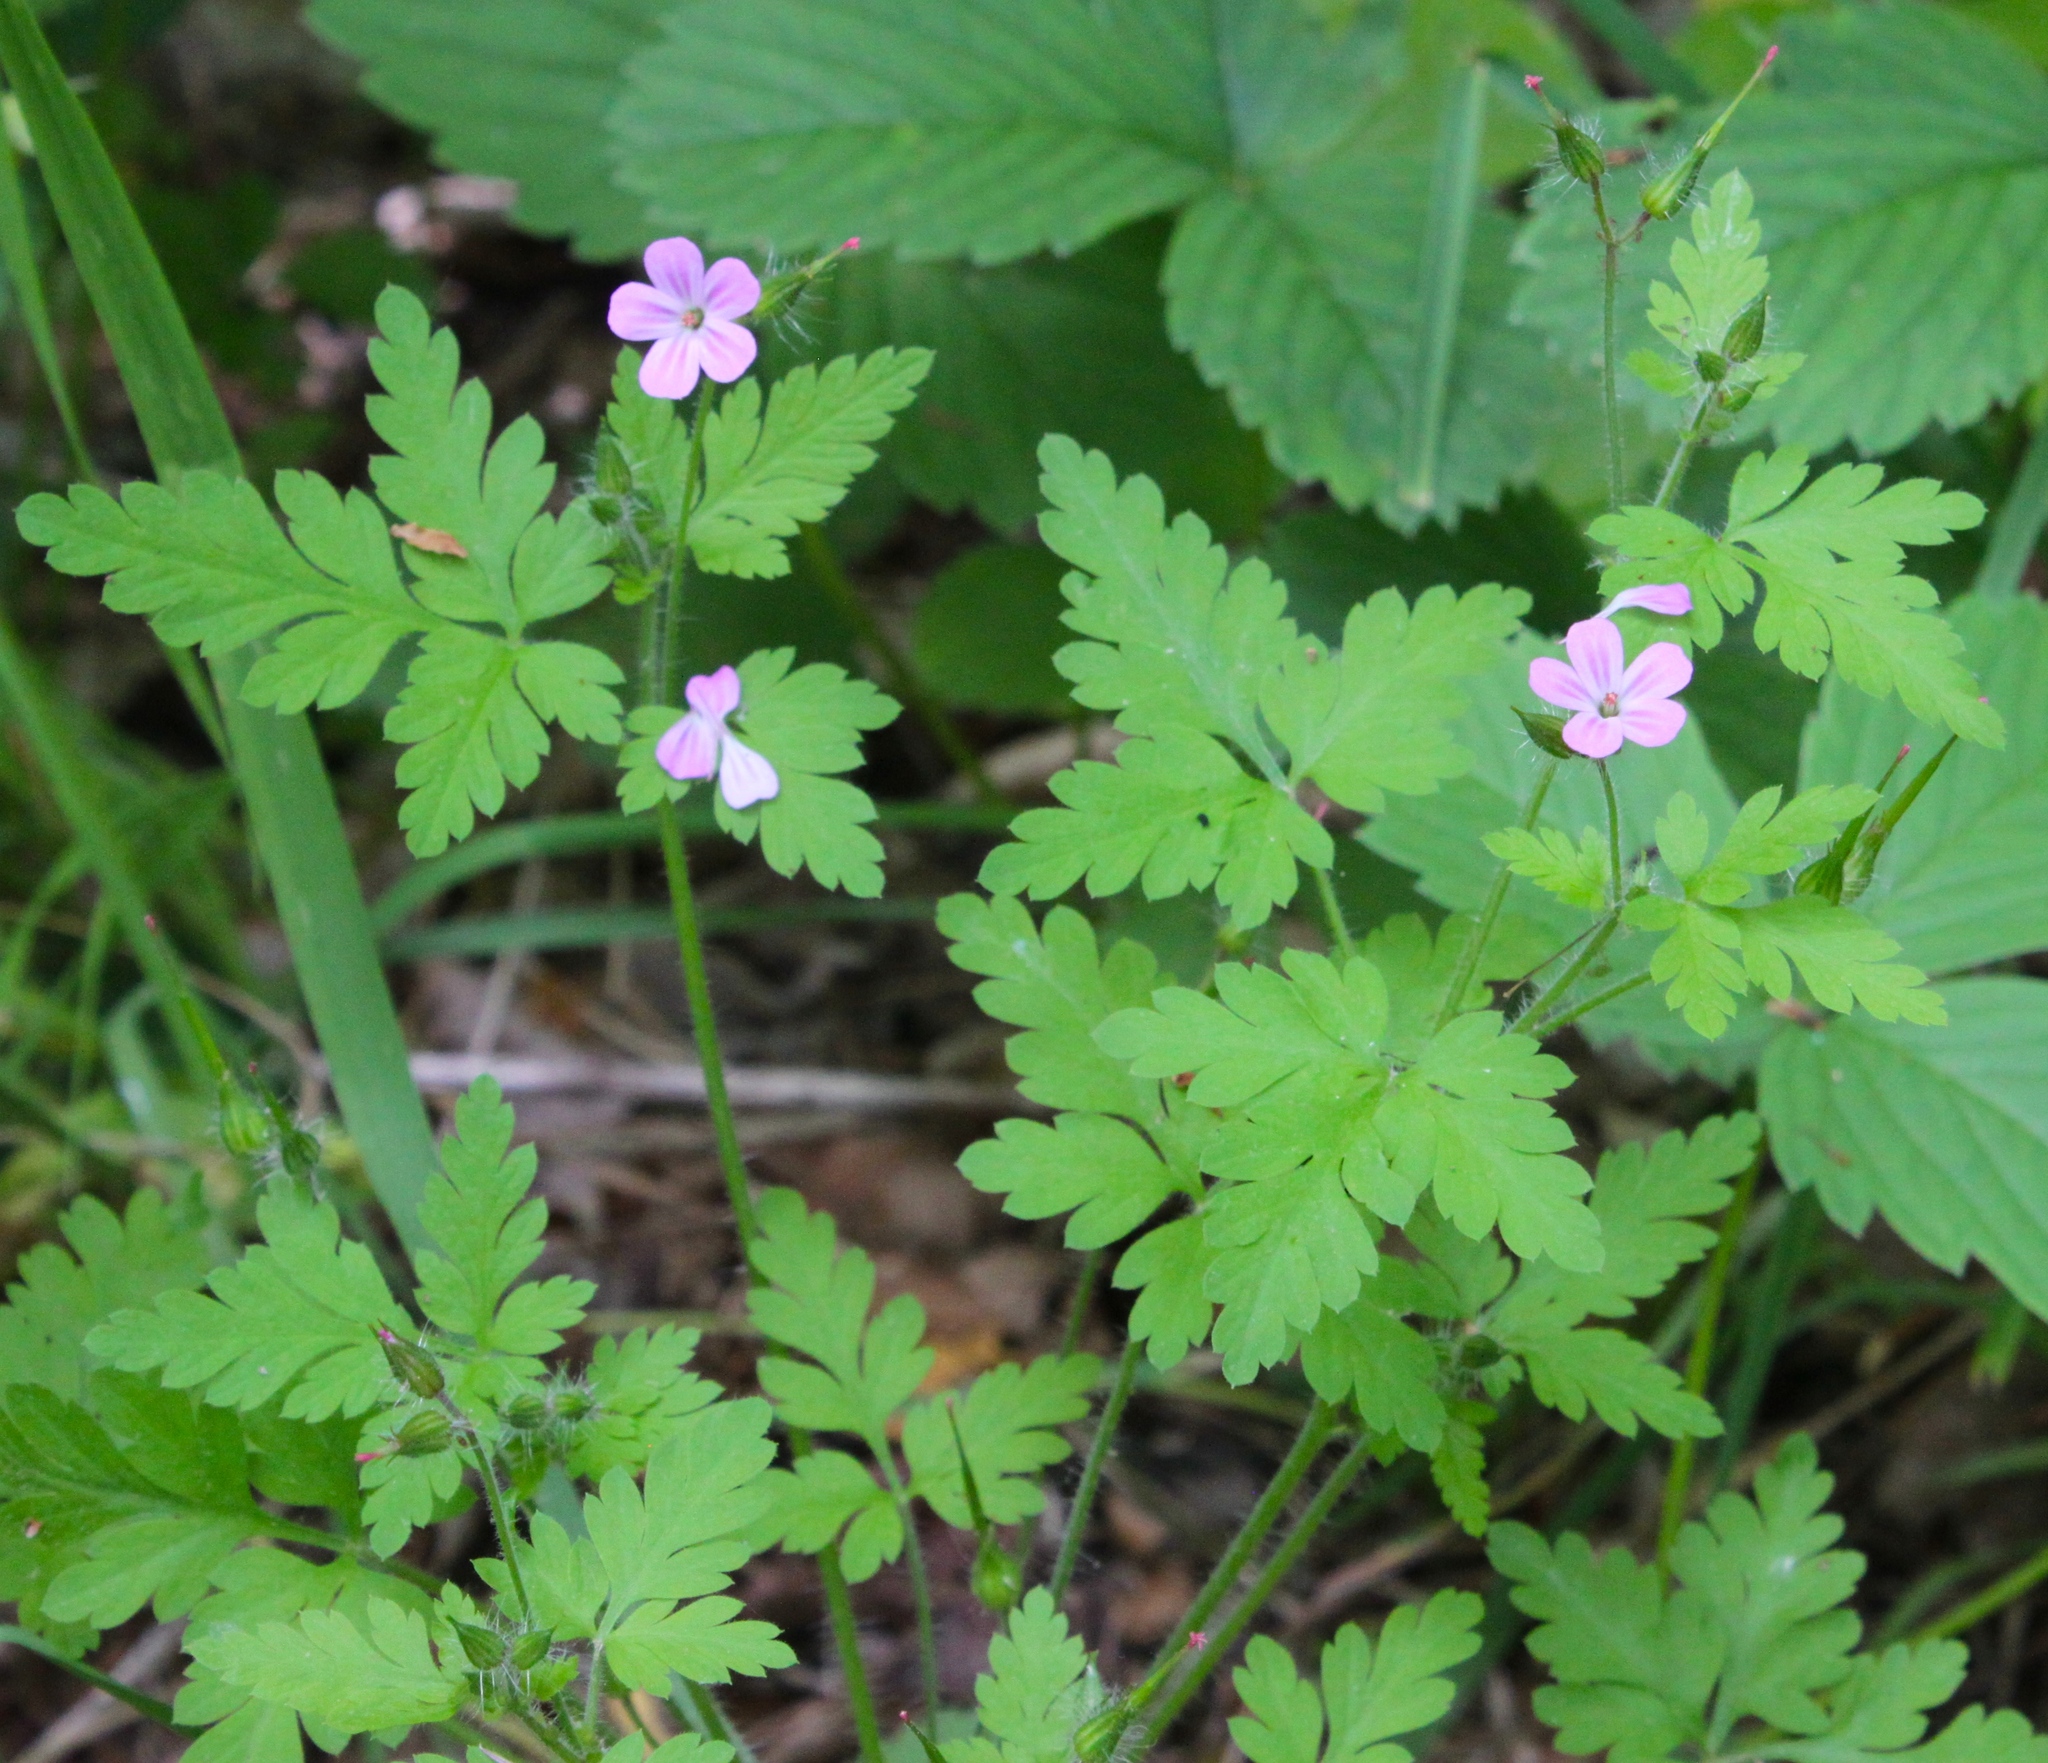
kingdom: Plantae
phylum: Tracheophyta
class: Magnoliopsida
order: Geraniales
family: Geraniaceae
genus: Geranium
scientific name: Geranium robertianum
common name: Herb-robert
